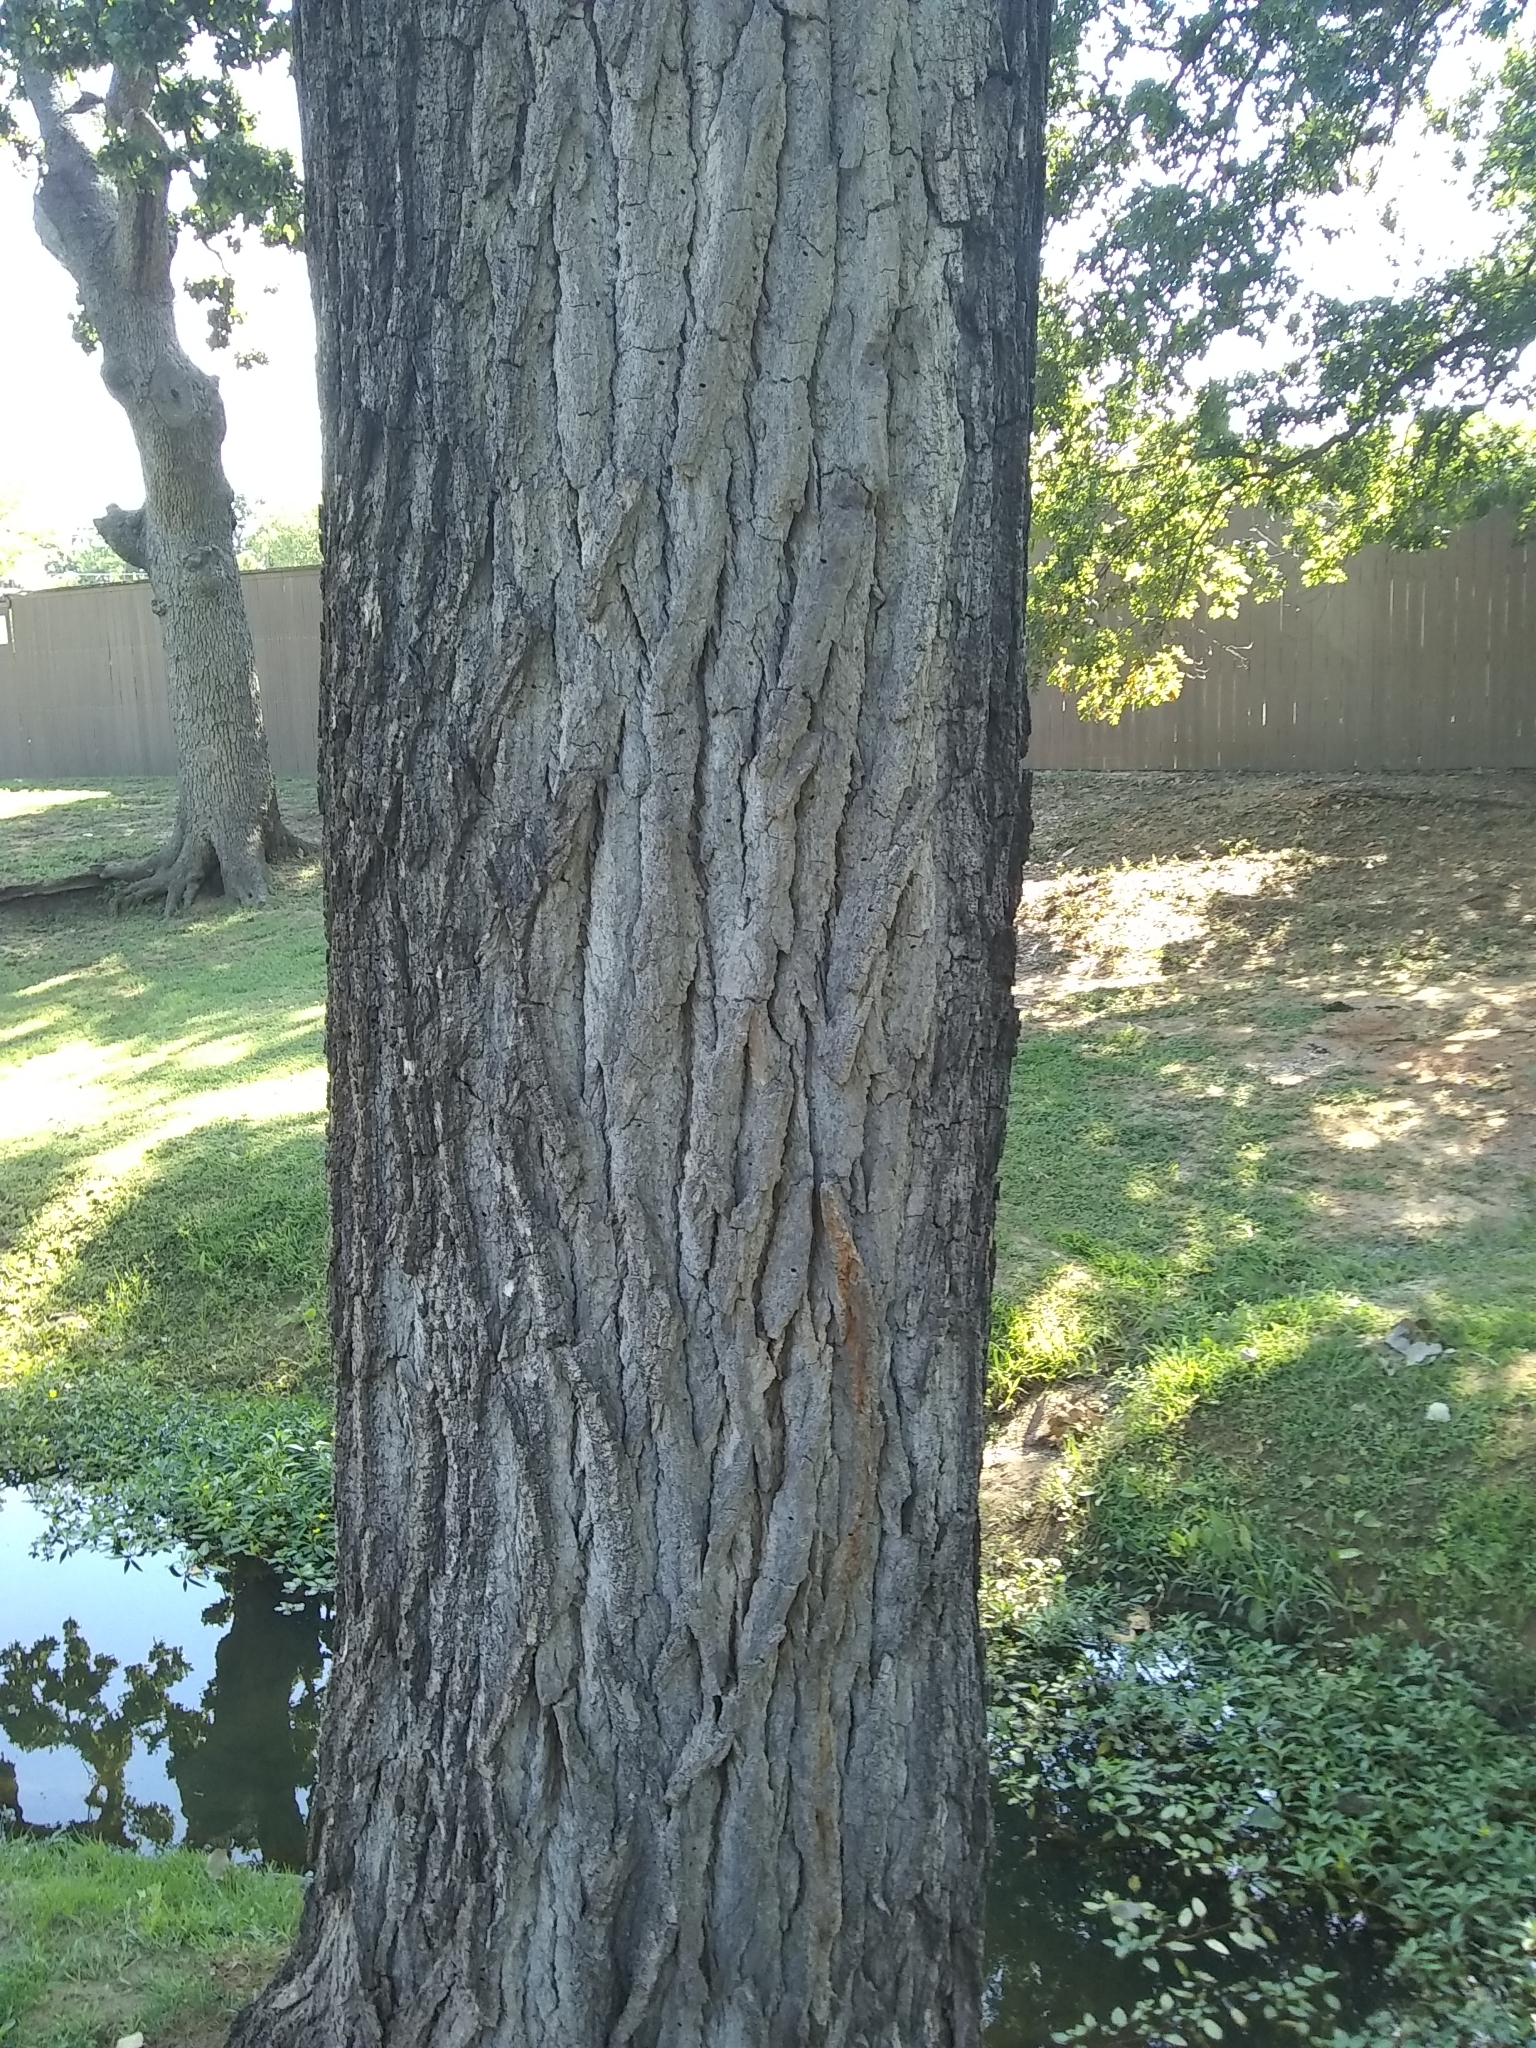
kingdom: Plantae
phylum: Tracheophyta
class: Magnoliopsida
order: Malpighiales
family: Salicaceae
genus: Populus
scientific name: Populus deltoides
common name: Eastern cottonwood
